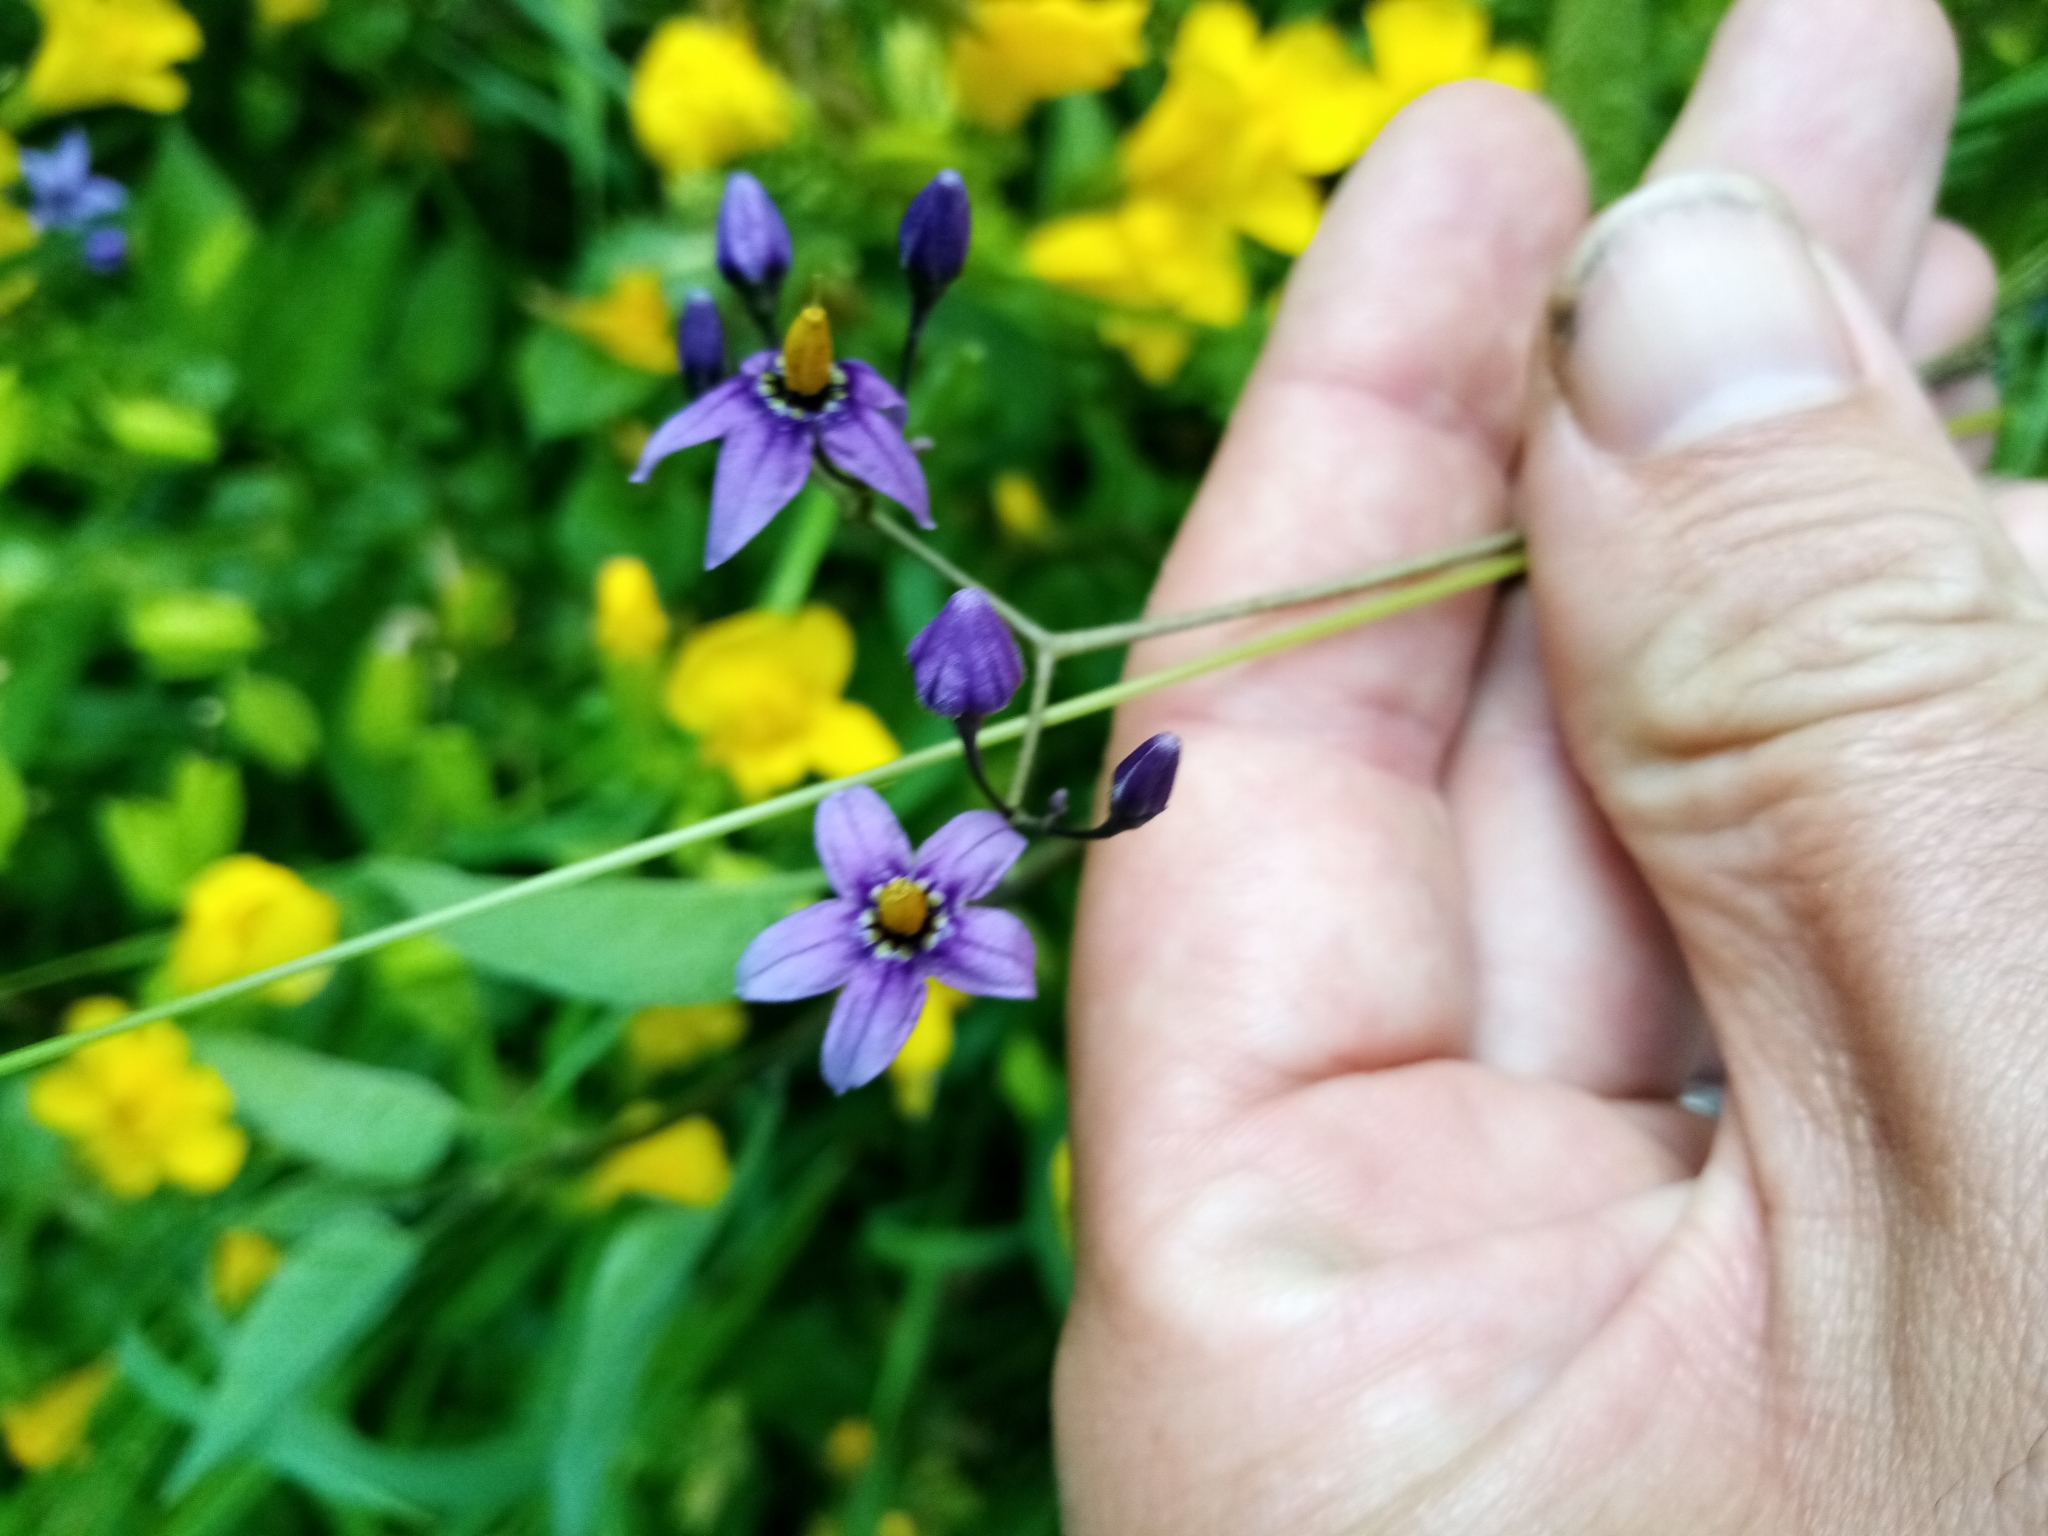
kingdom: Plantae
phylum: Tracheophyta
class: Magnoliopsida
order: Solanales
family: Solanaceae
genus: Solanum
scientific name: Solanum dulcamara
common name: Climbing nightshade
